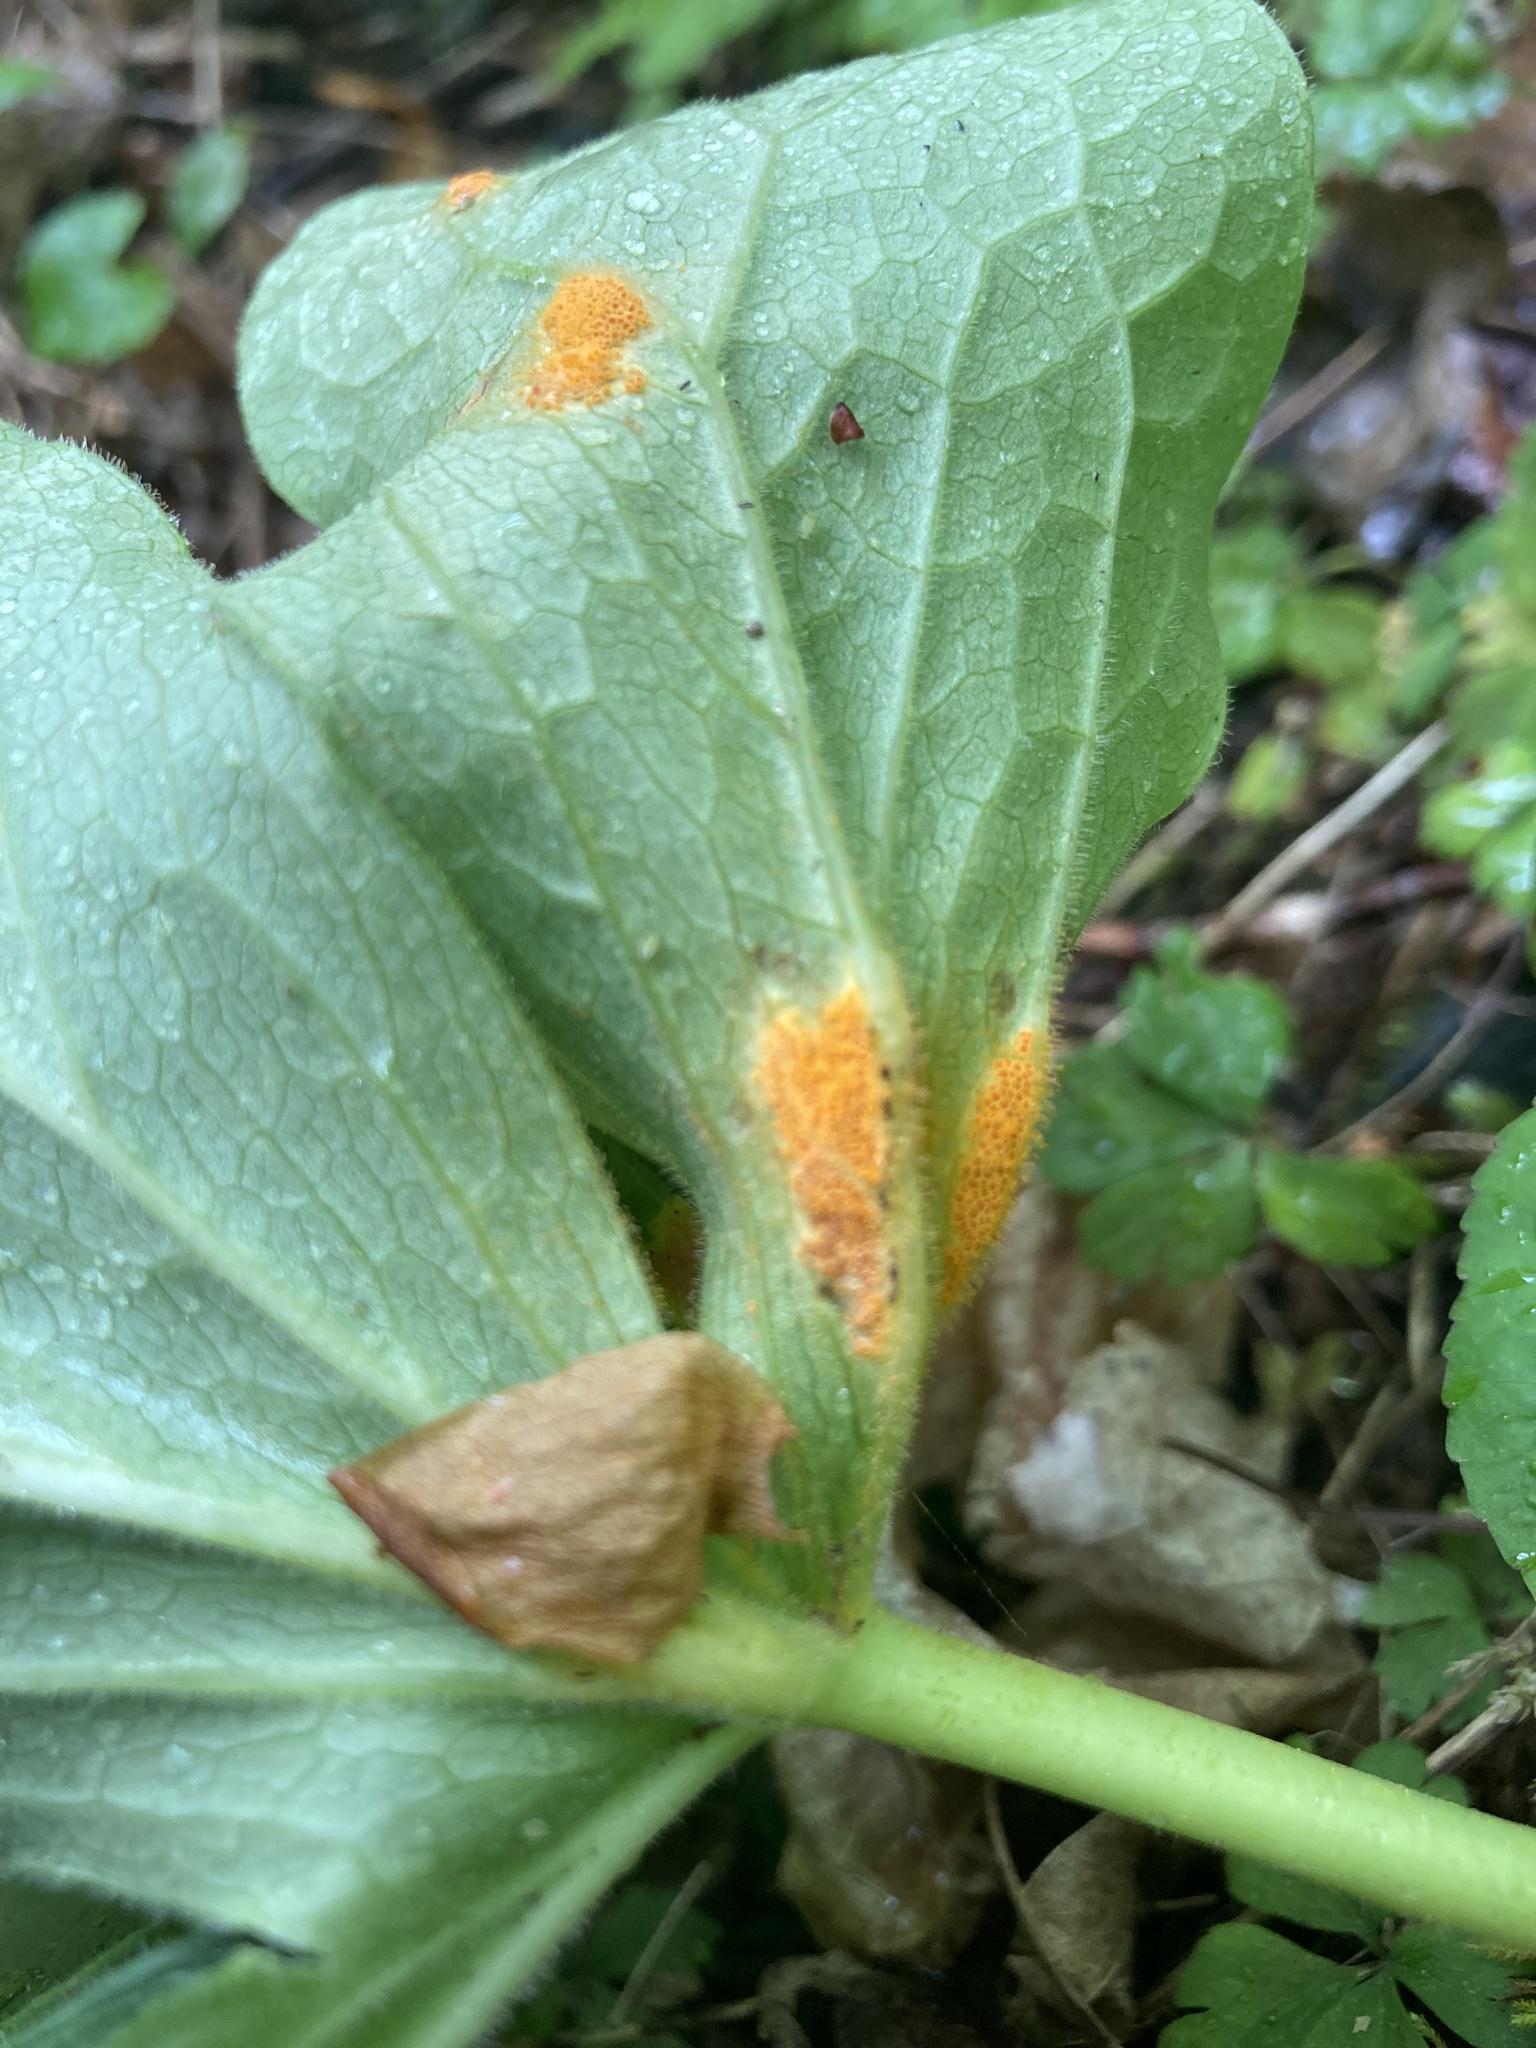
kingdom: Fungi
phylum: Basidiomycota
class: Pucciniomycetes
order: Pucciniales
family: Pucciniaceae
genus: Puccinia
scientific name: Puccinia podophylli
